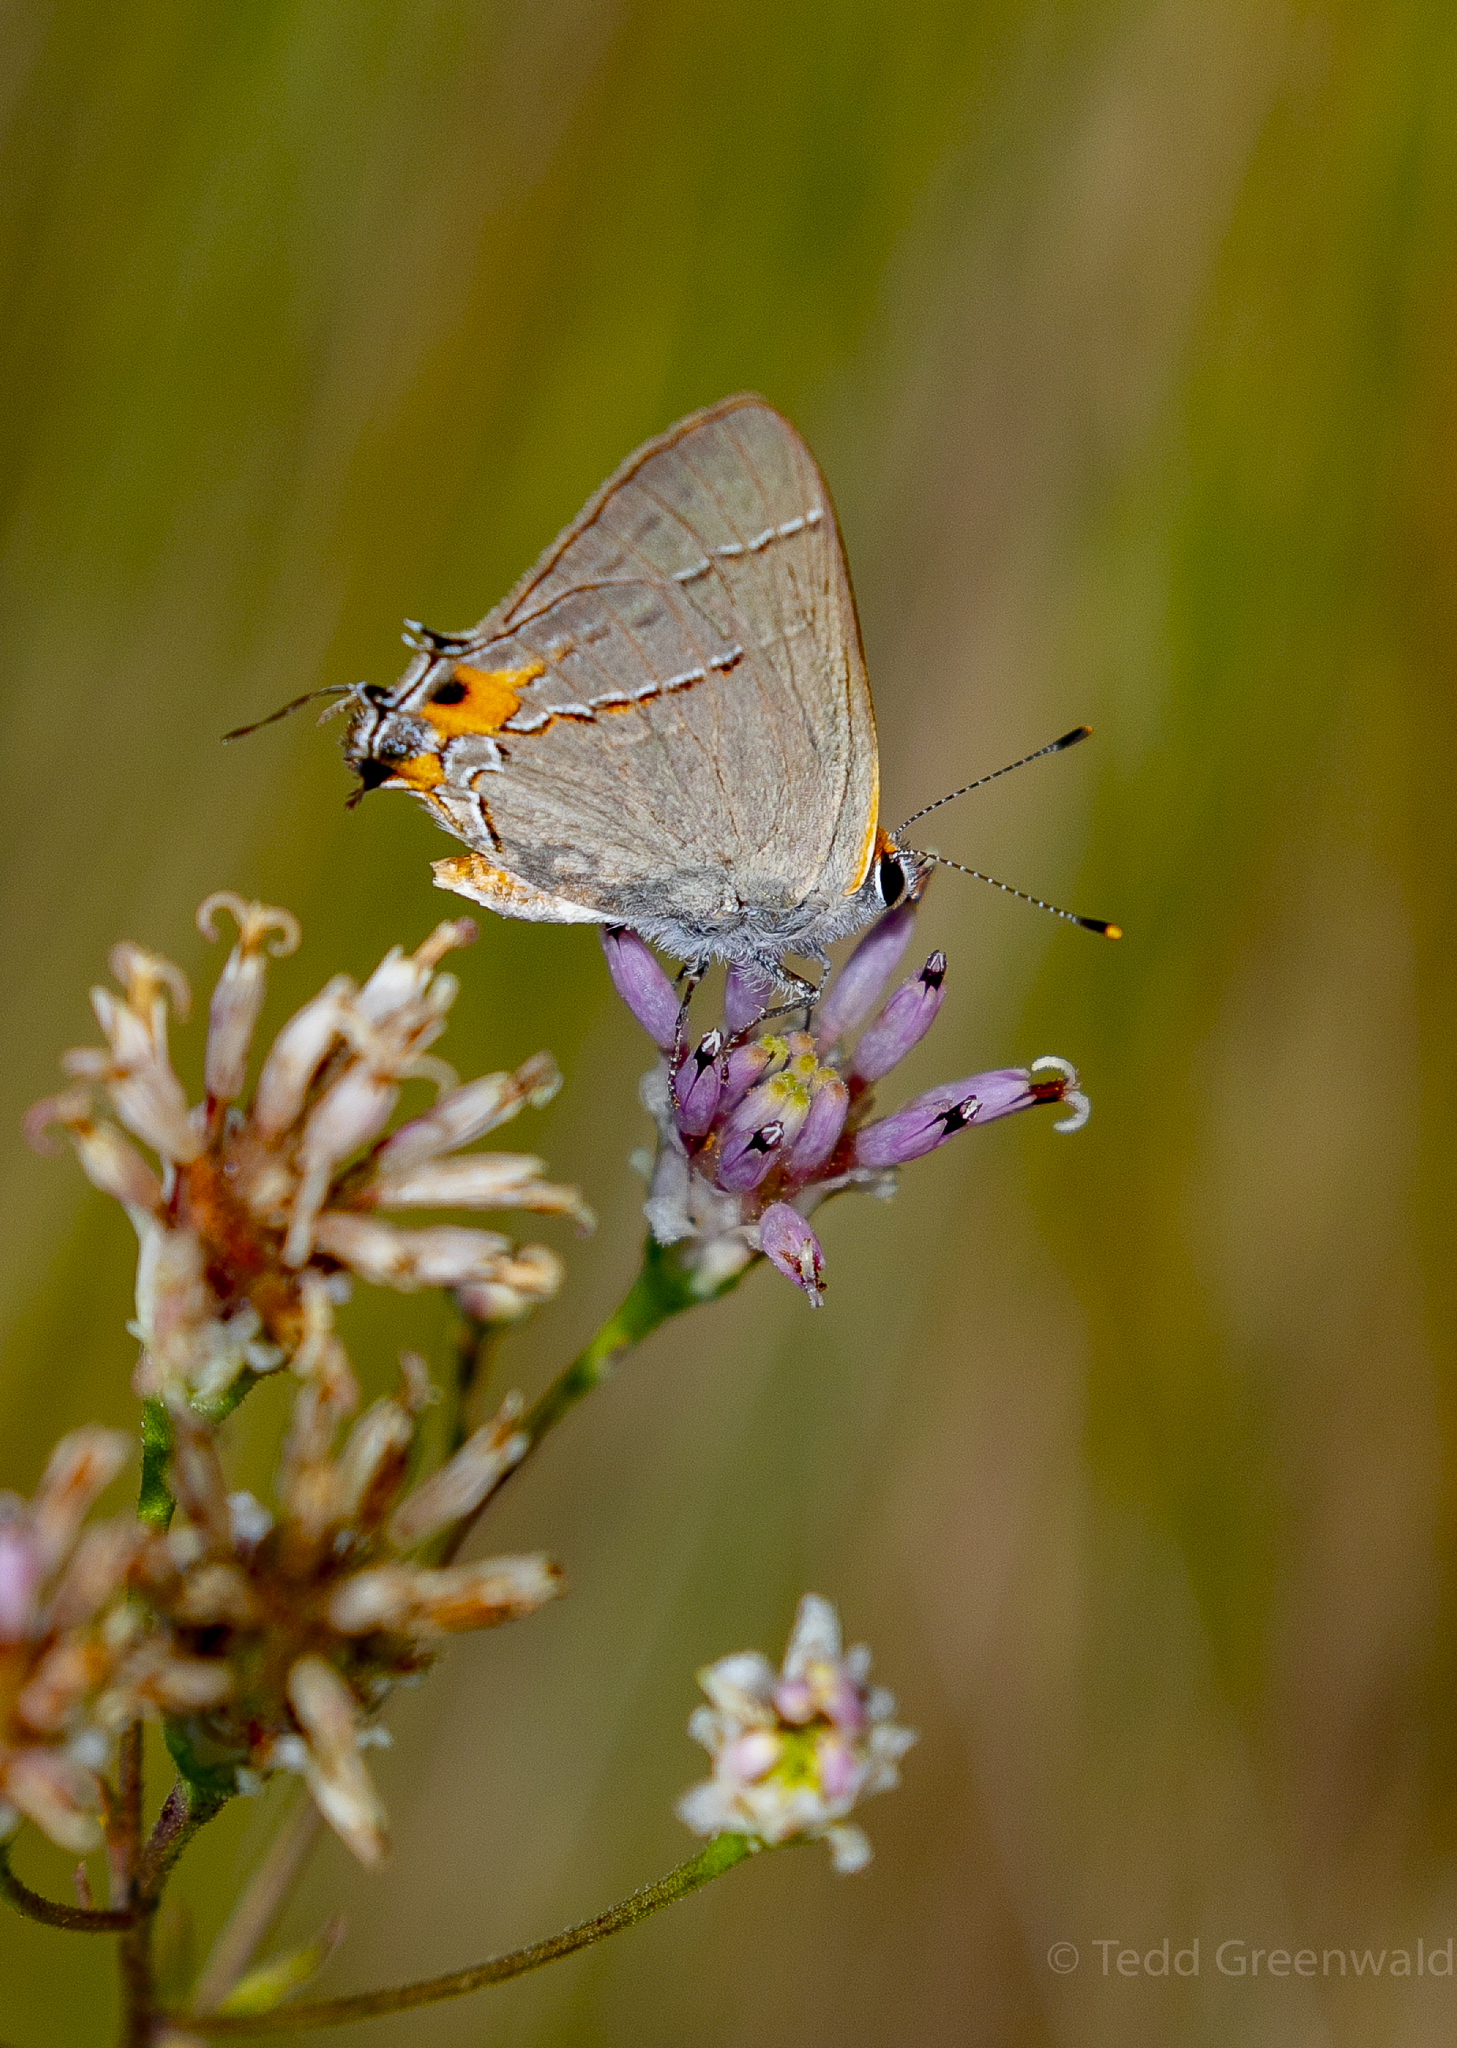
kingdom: Animalia
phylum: Arthropoda
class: Insecta
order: Lepidoptera
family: Lycaenidae
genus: Strymon
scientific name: Strymon melinus
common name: Gray hairstreak
